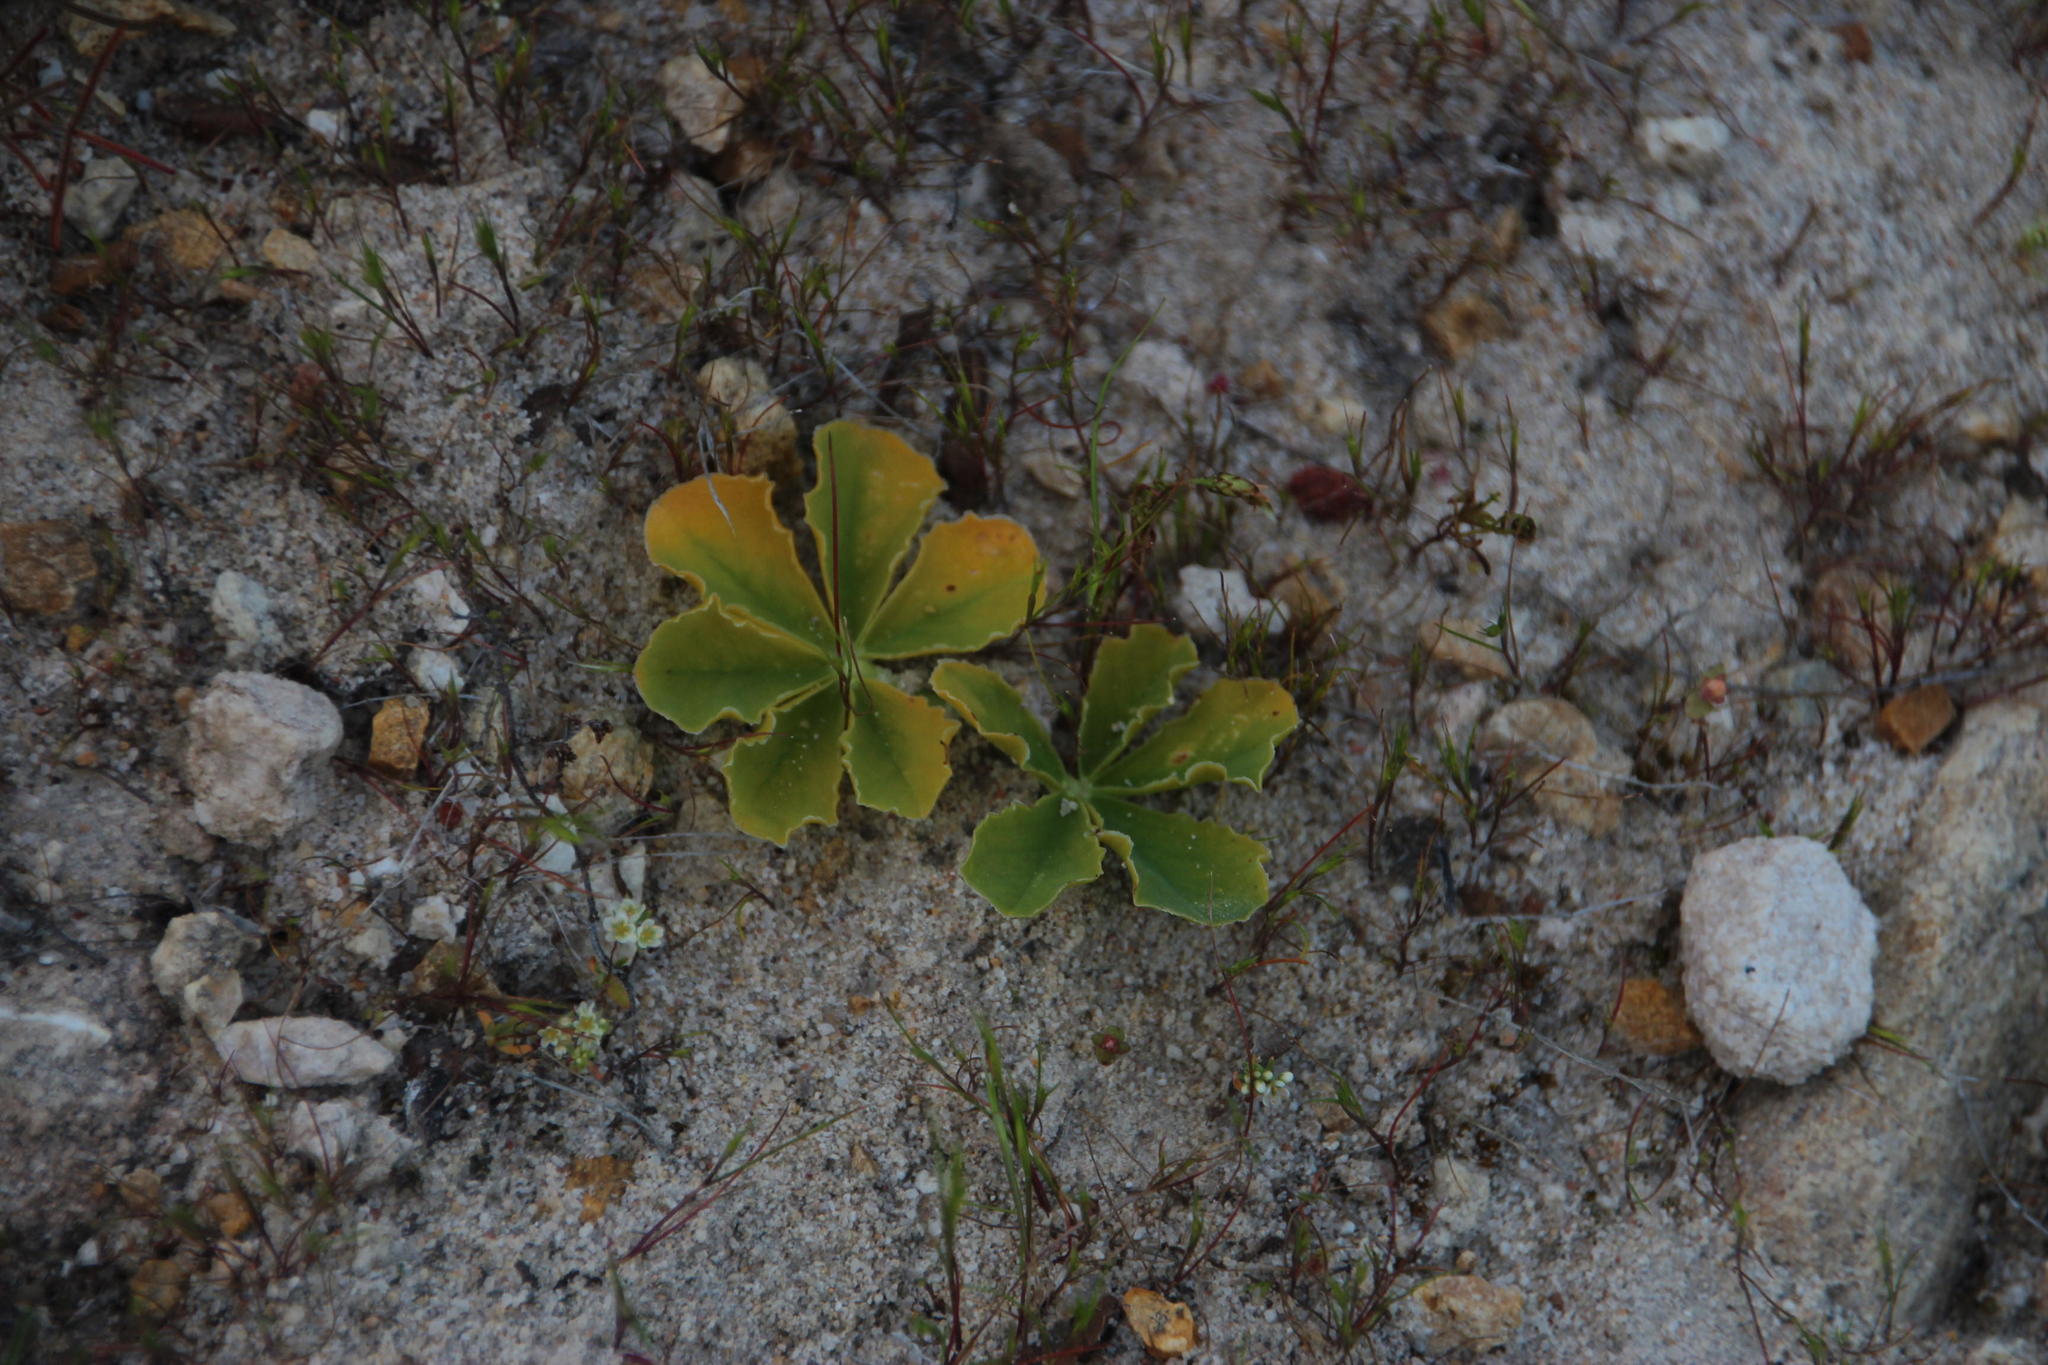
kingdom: Plantae
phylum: Tracheophyta
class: Magnoliopsida
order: Oxalidales
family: Oxalidaceae
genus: Oxalis
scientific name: Oxalis flava
